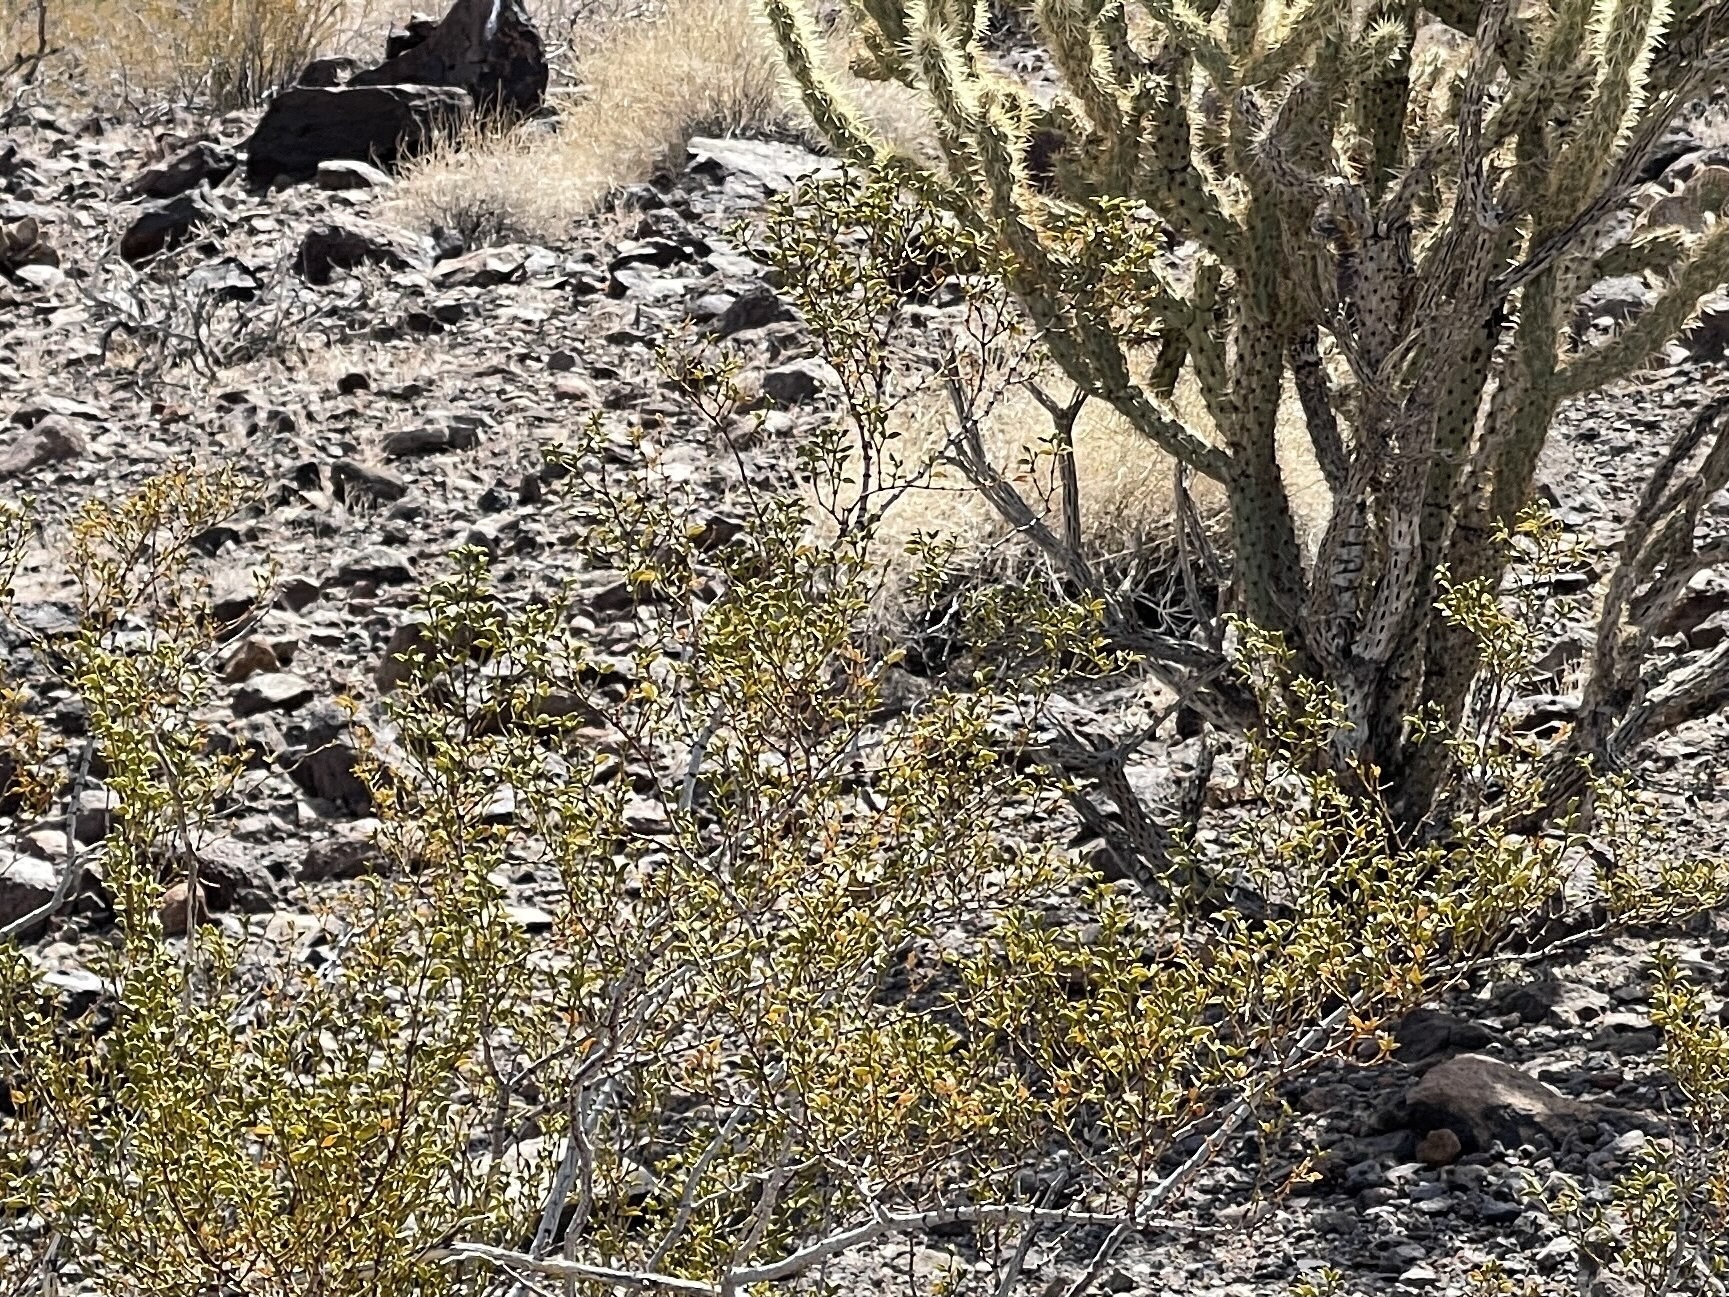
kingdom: Plantae
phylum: Tracheophyta
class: Magnoliopsida
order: Caryophyllales
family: Cactaceae
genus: Cylindropuntia
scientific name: Cylindropuntia acanthocarpa
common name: Buckhorn cholla
